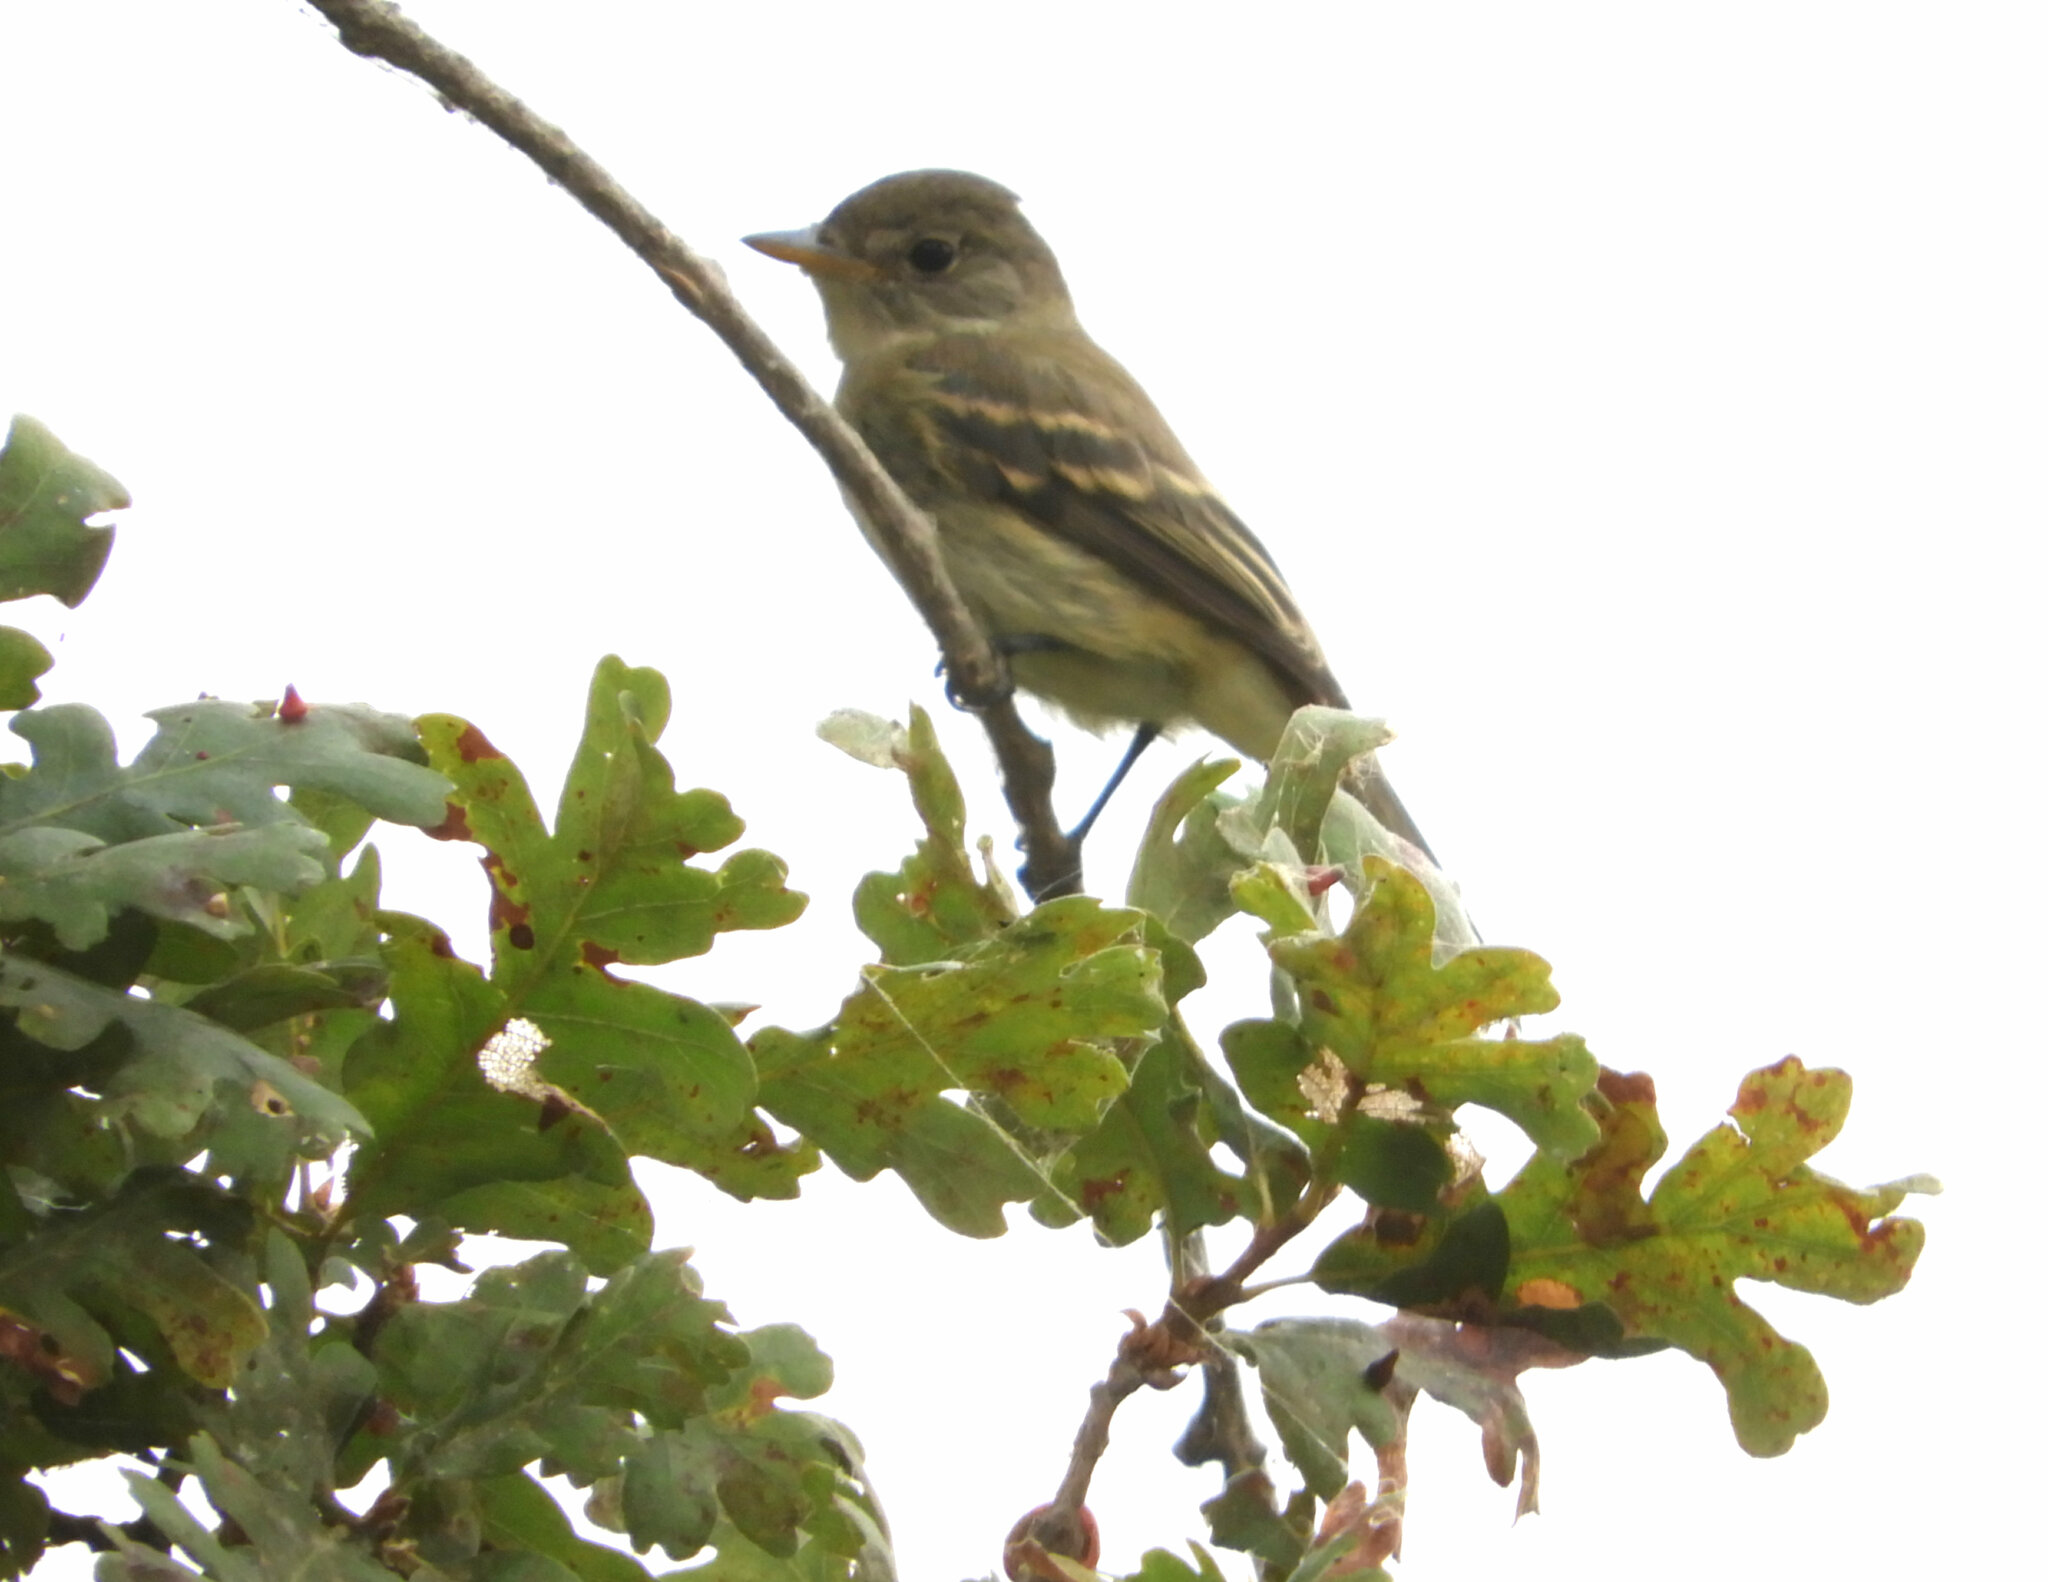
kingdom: Animalia
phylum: Chordata
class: Aves
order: Passeriformes
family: Tyrannidae
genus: Empidonax
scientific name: Empidonax traillii
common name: Willow flycatcher
